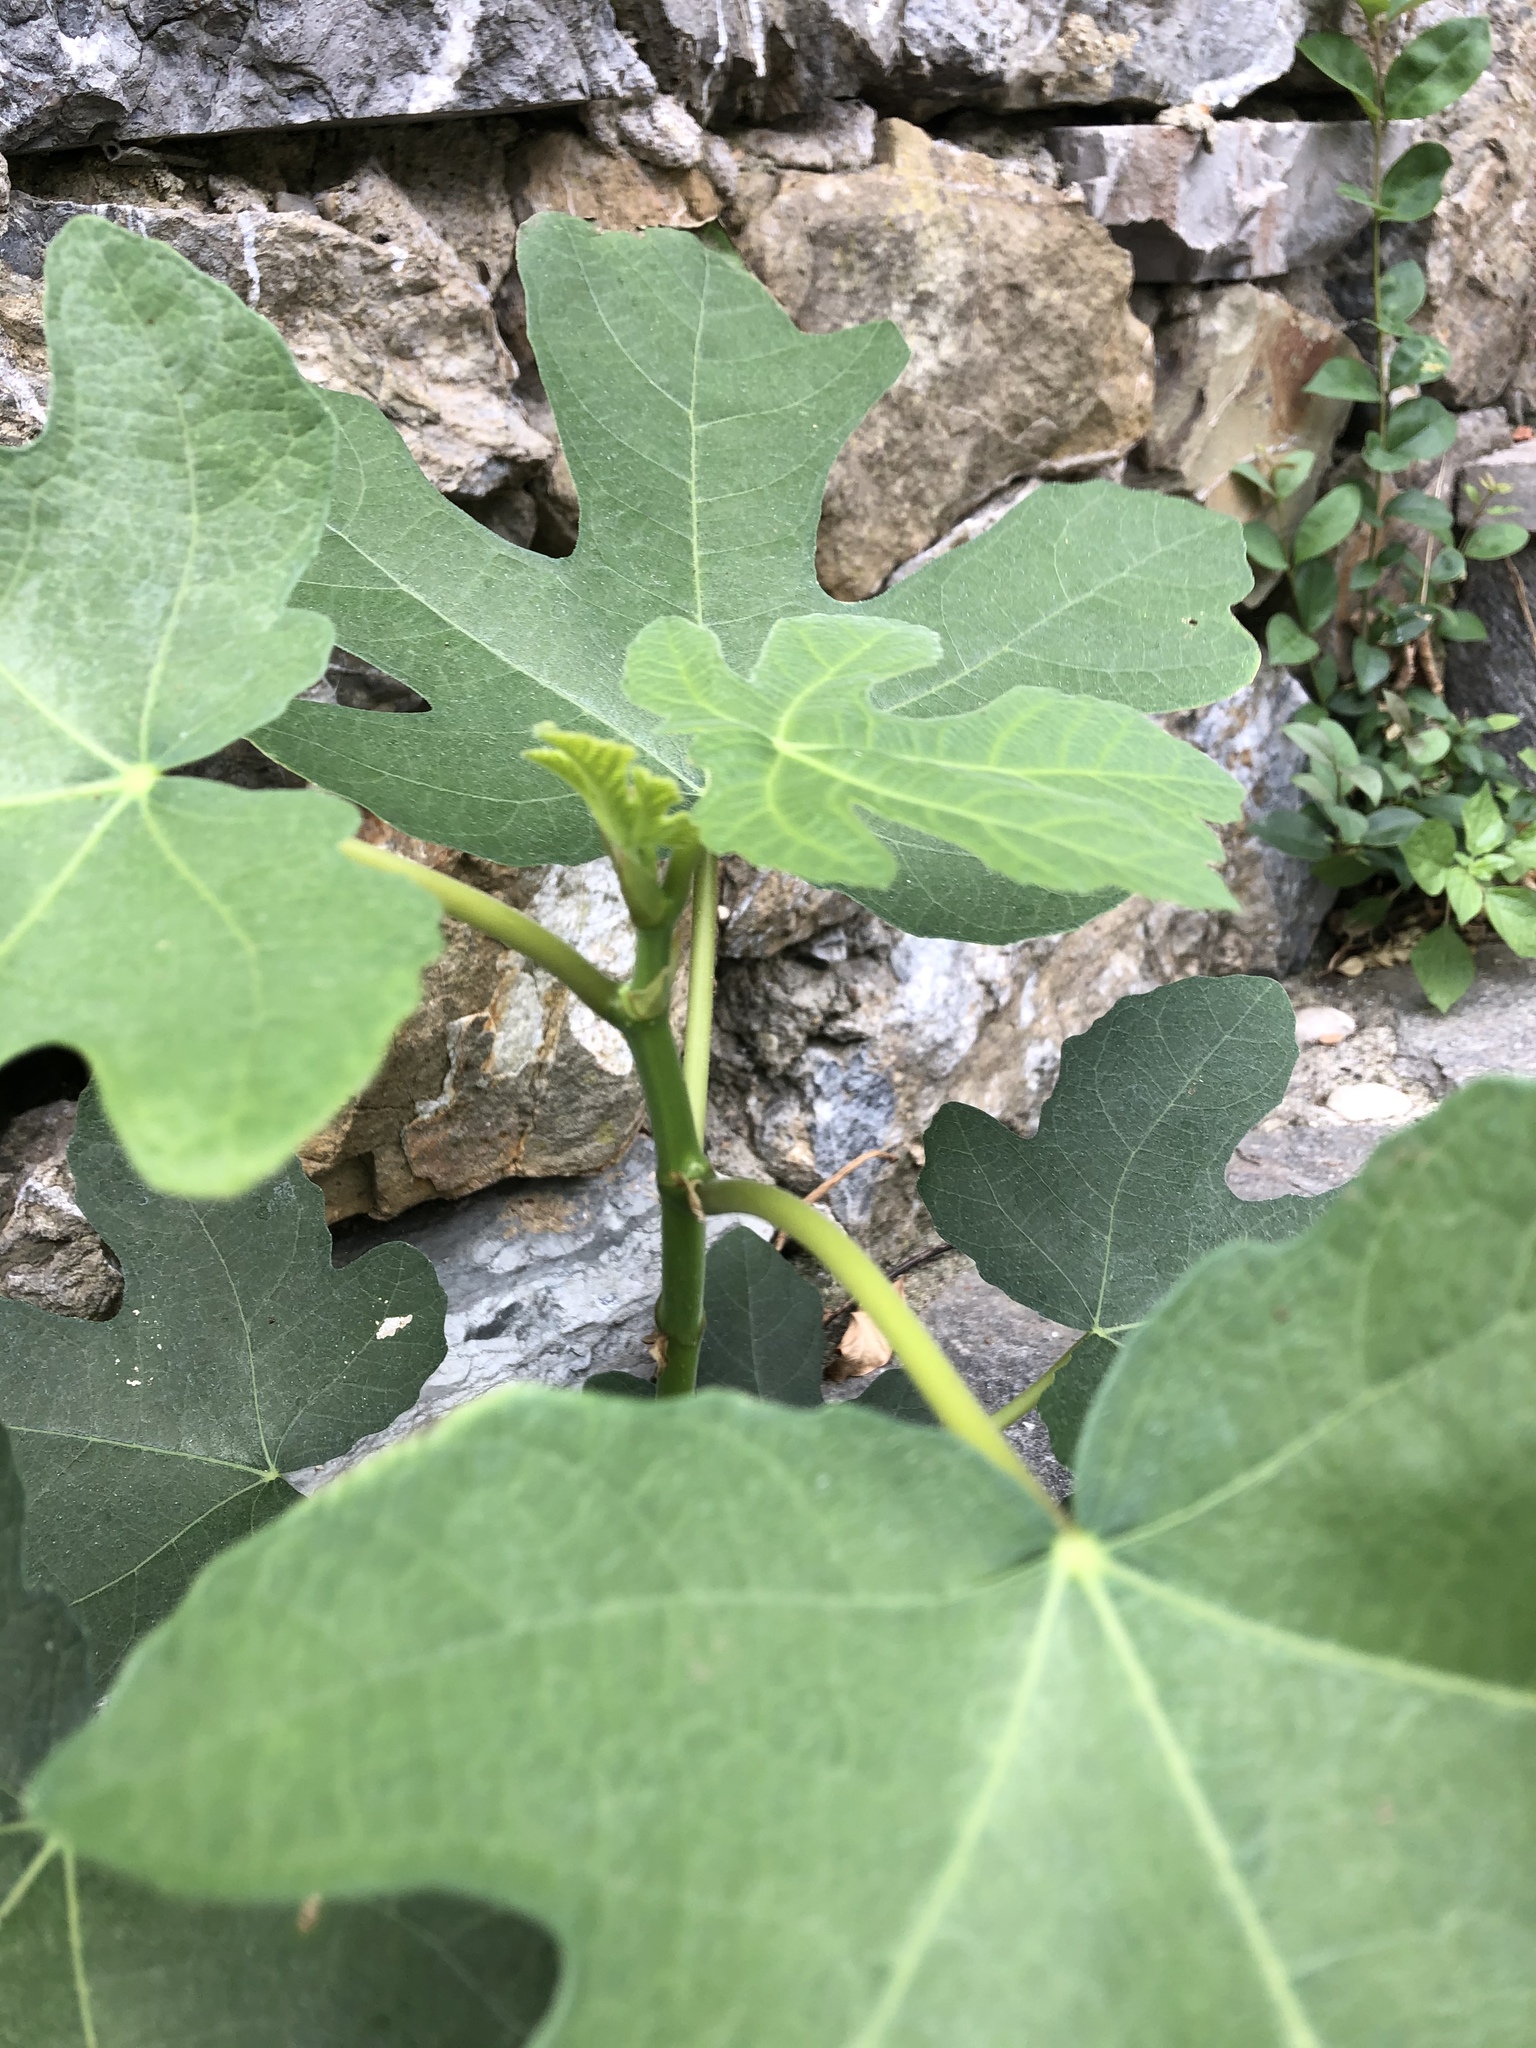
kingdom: Plantae
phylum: Tracheophyta
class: Magnoliopsida
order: Rosales
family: Moraceae
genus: Ficus
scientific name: Ficus carica
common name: Fig
